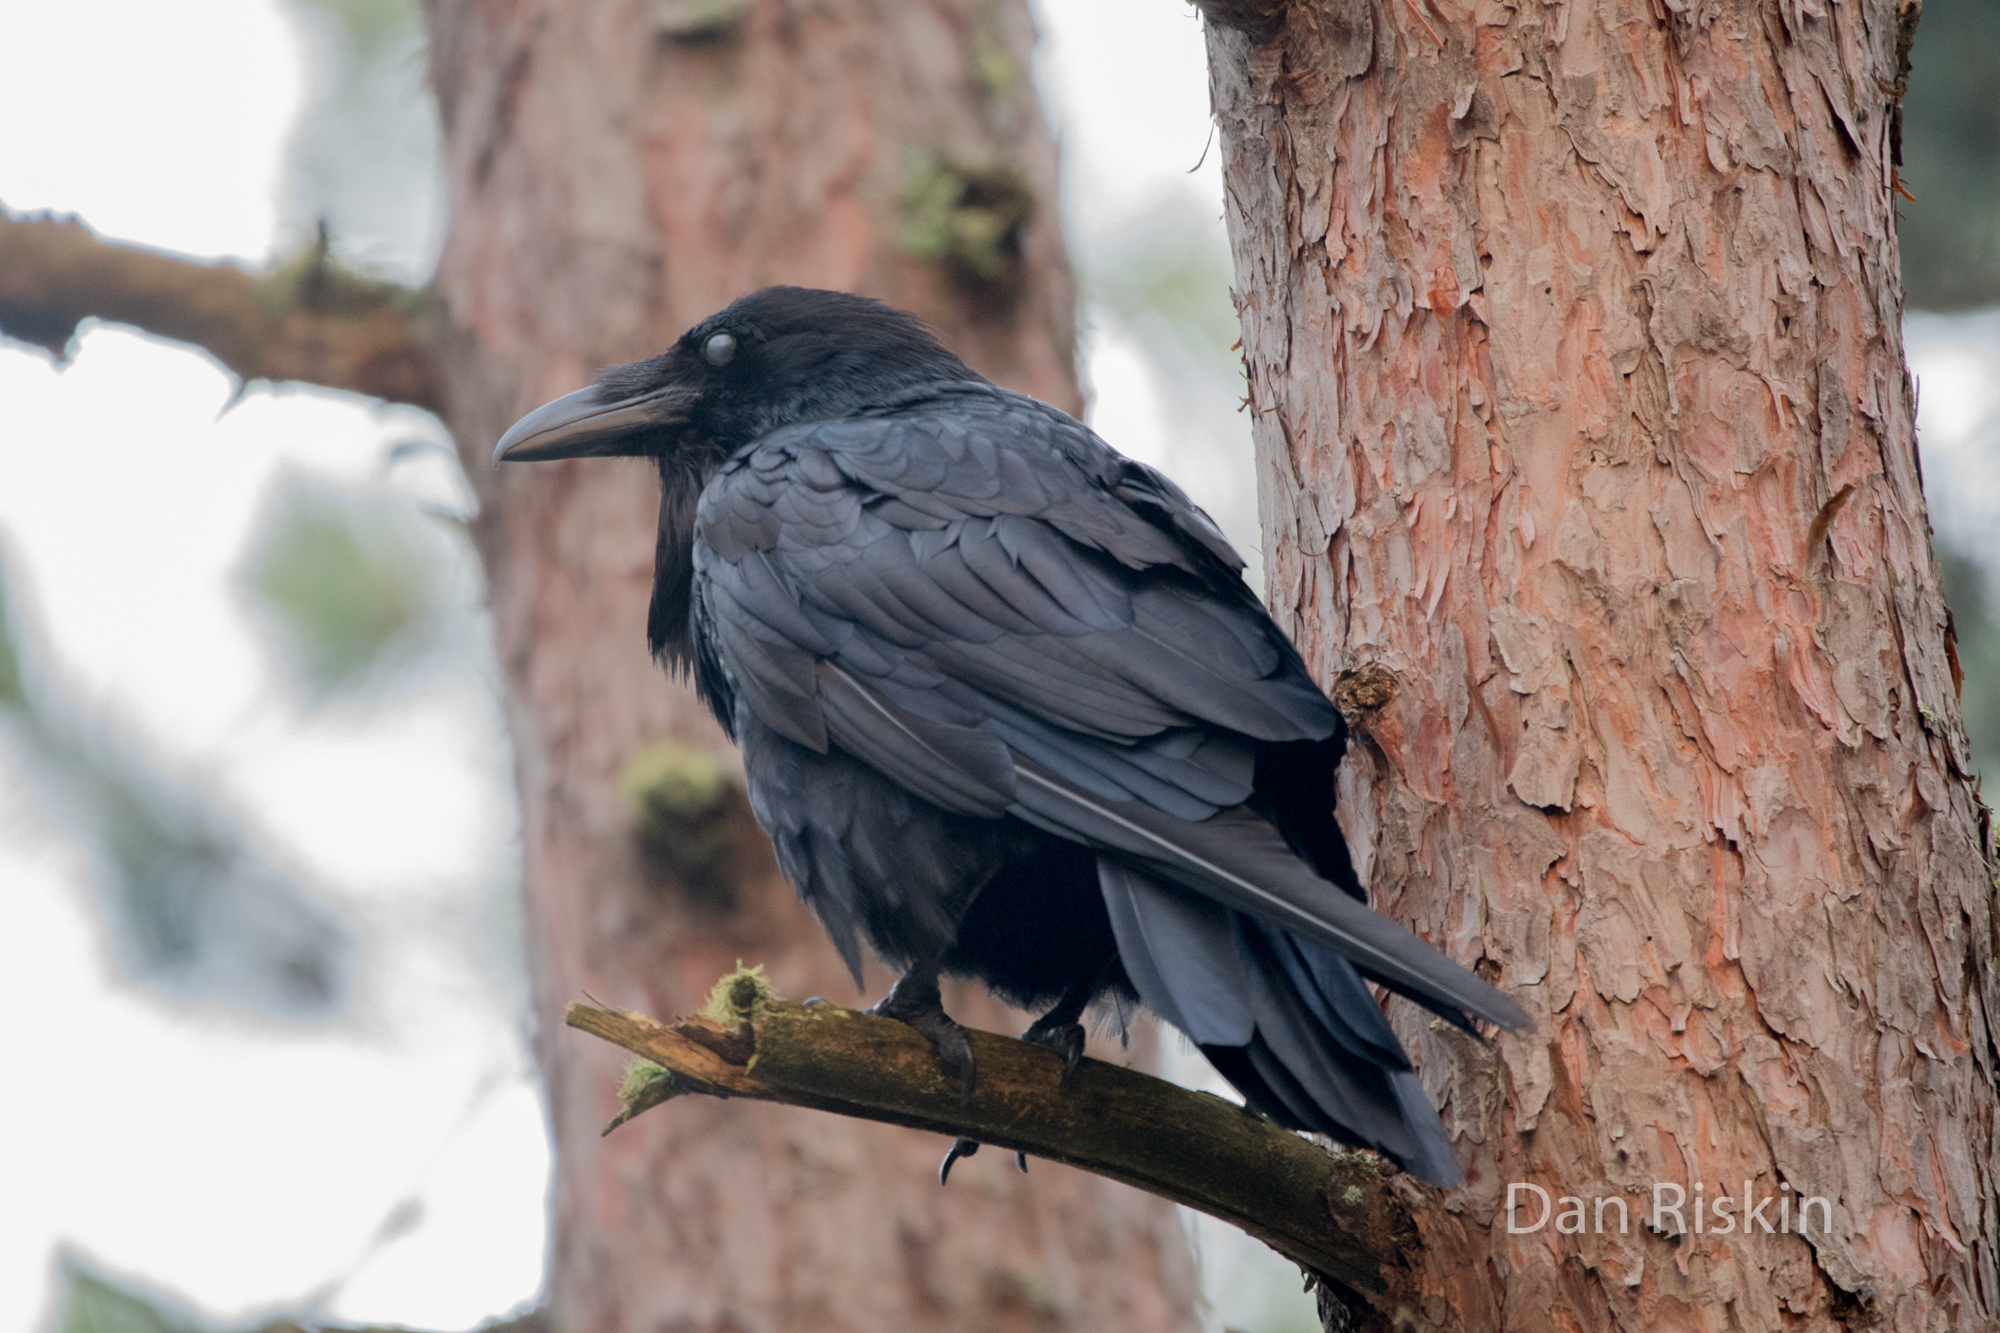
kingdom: Animalia
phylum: Chordata
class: Aves
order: Passeriformes
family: Corvidae
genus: Corvus
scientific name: Corvus corax
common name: Common raven
